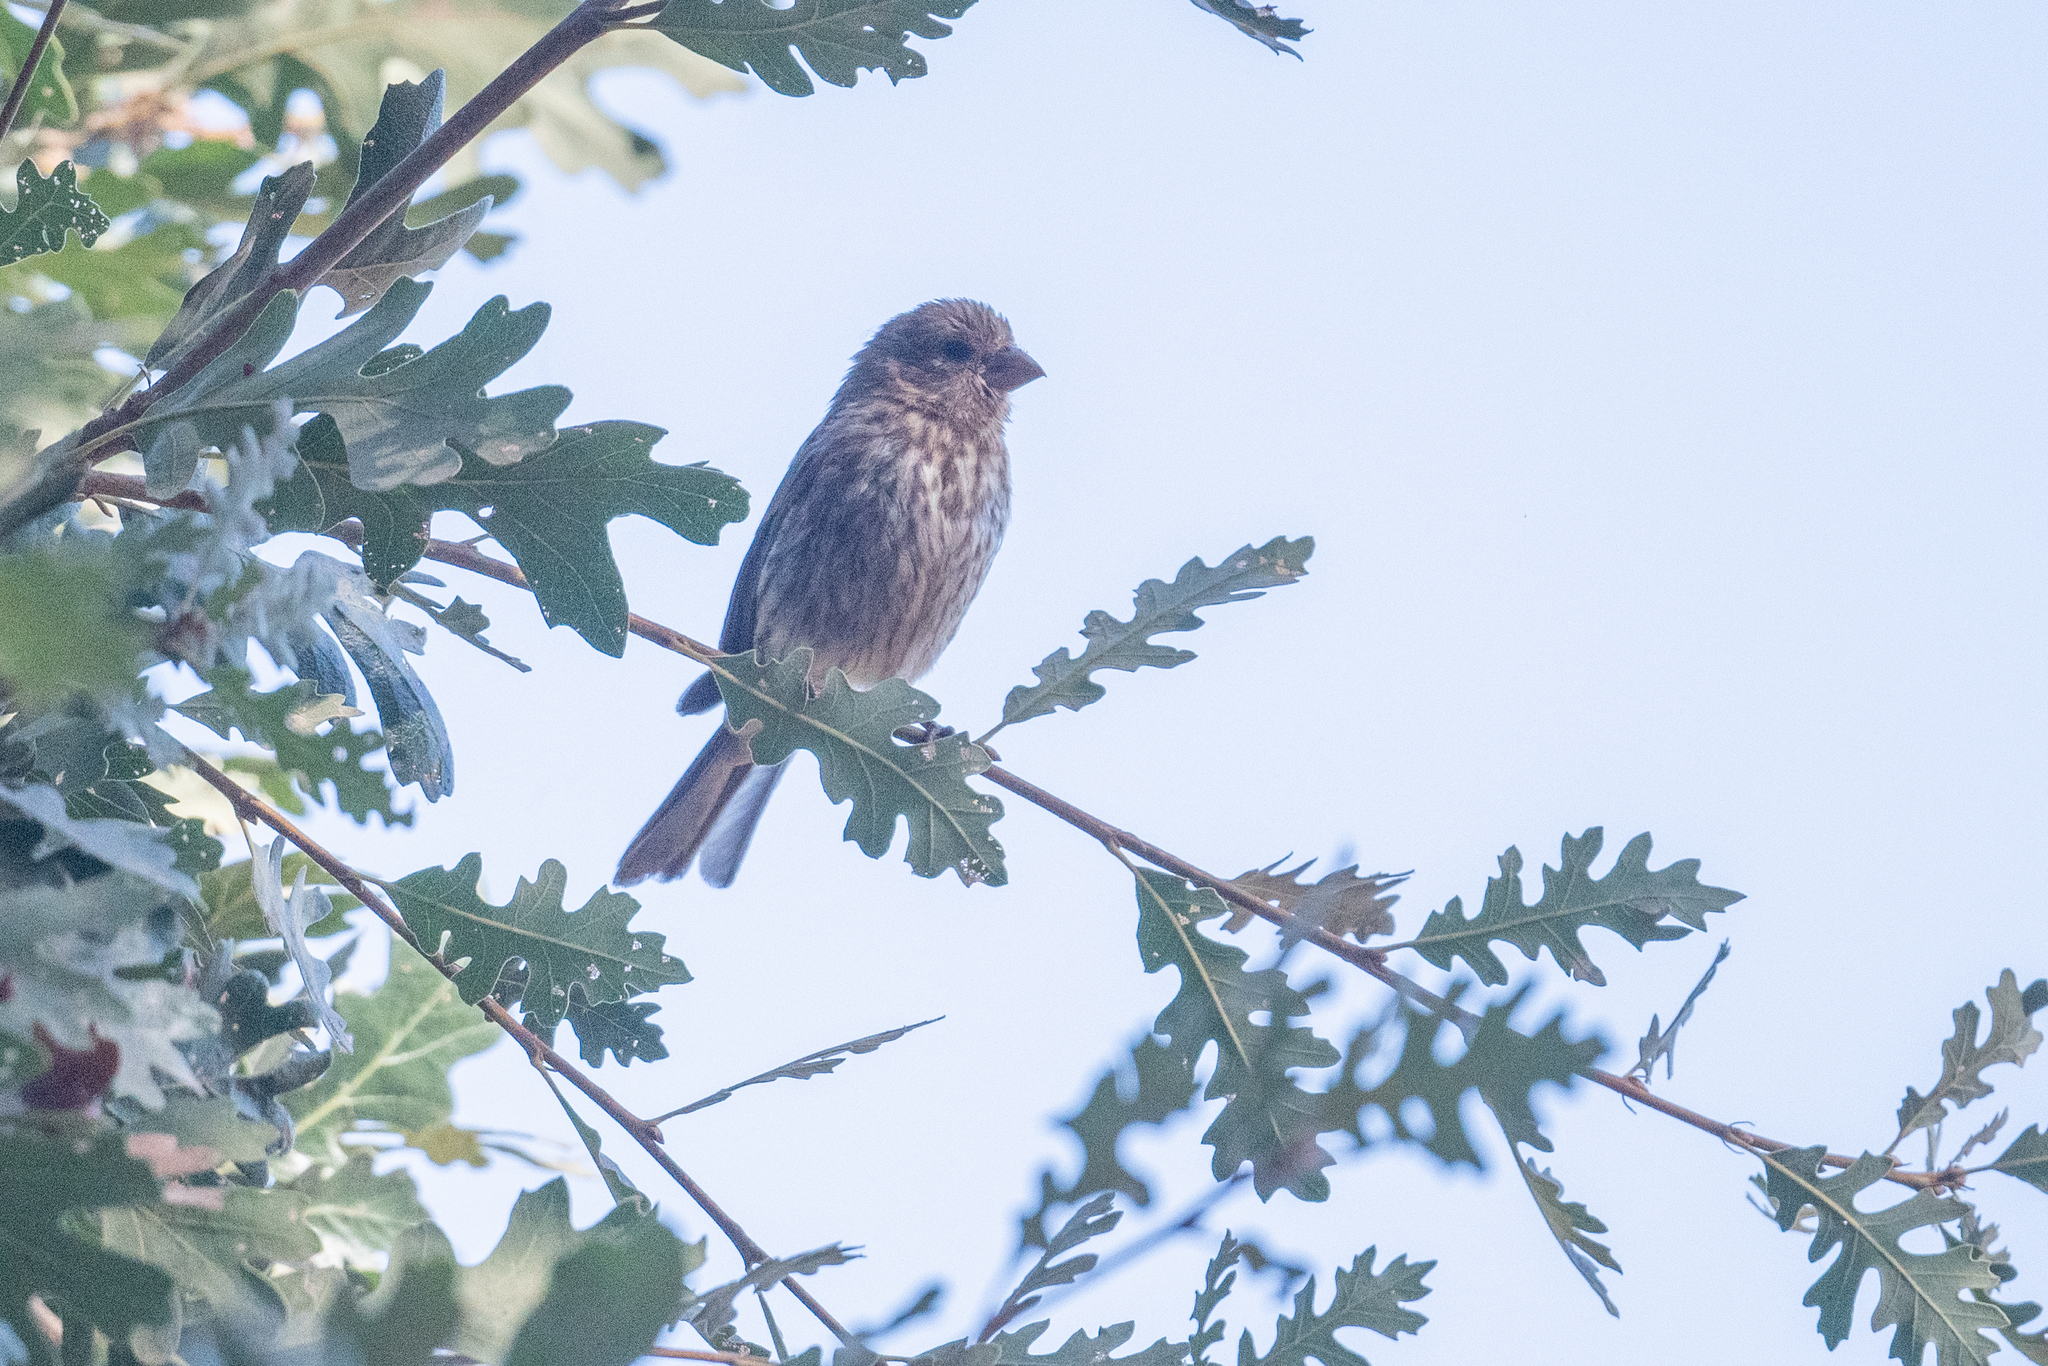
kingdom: Animalia
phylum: Chordata
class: Aves
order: Passeriformes
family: Fringillidae
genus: Haemorhous
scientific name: Haemorhous mexicanus
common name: House finch
